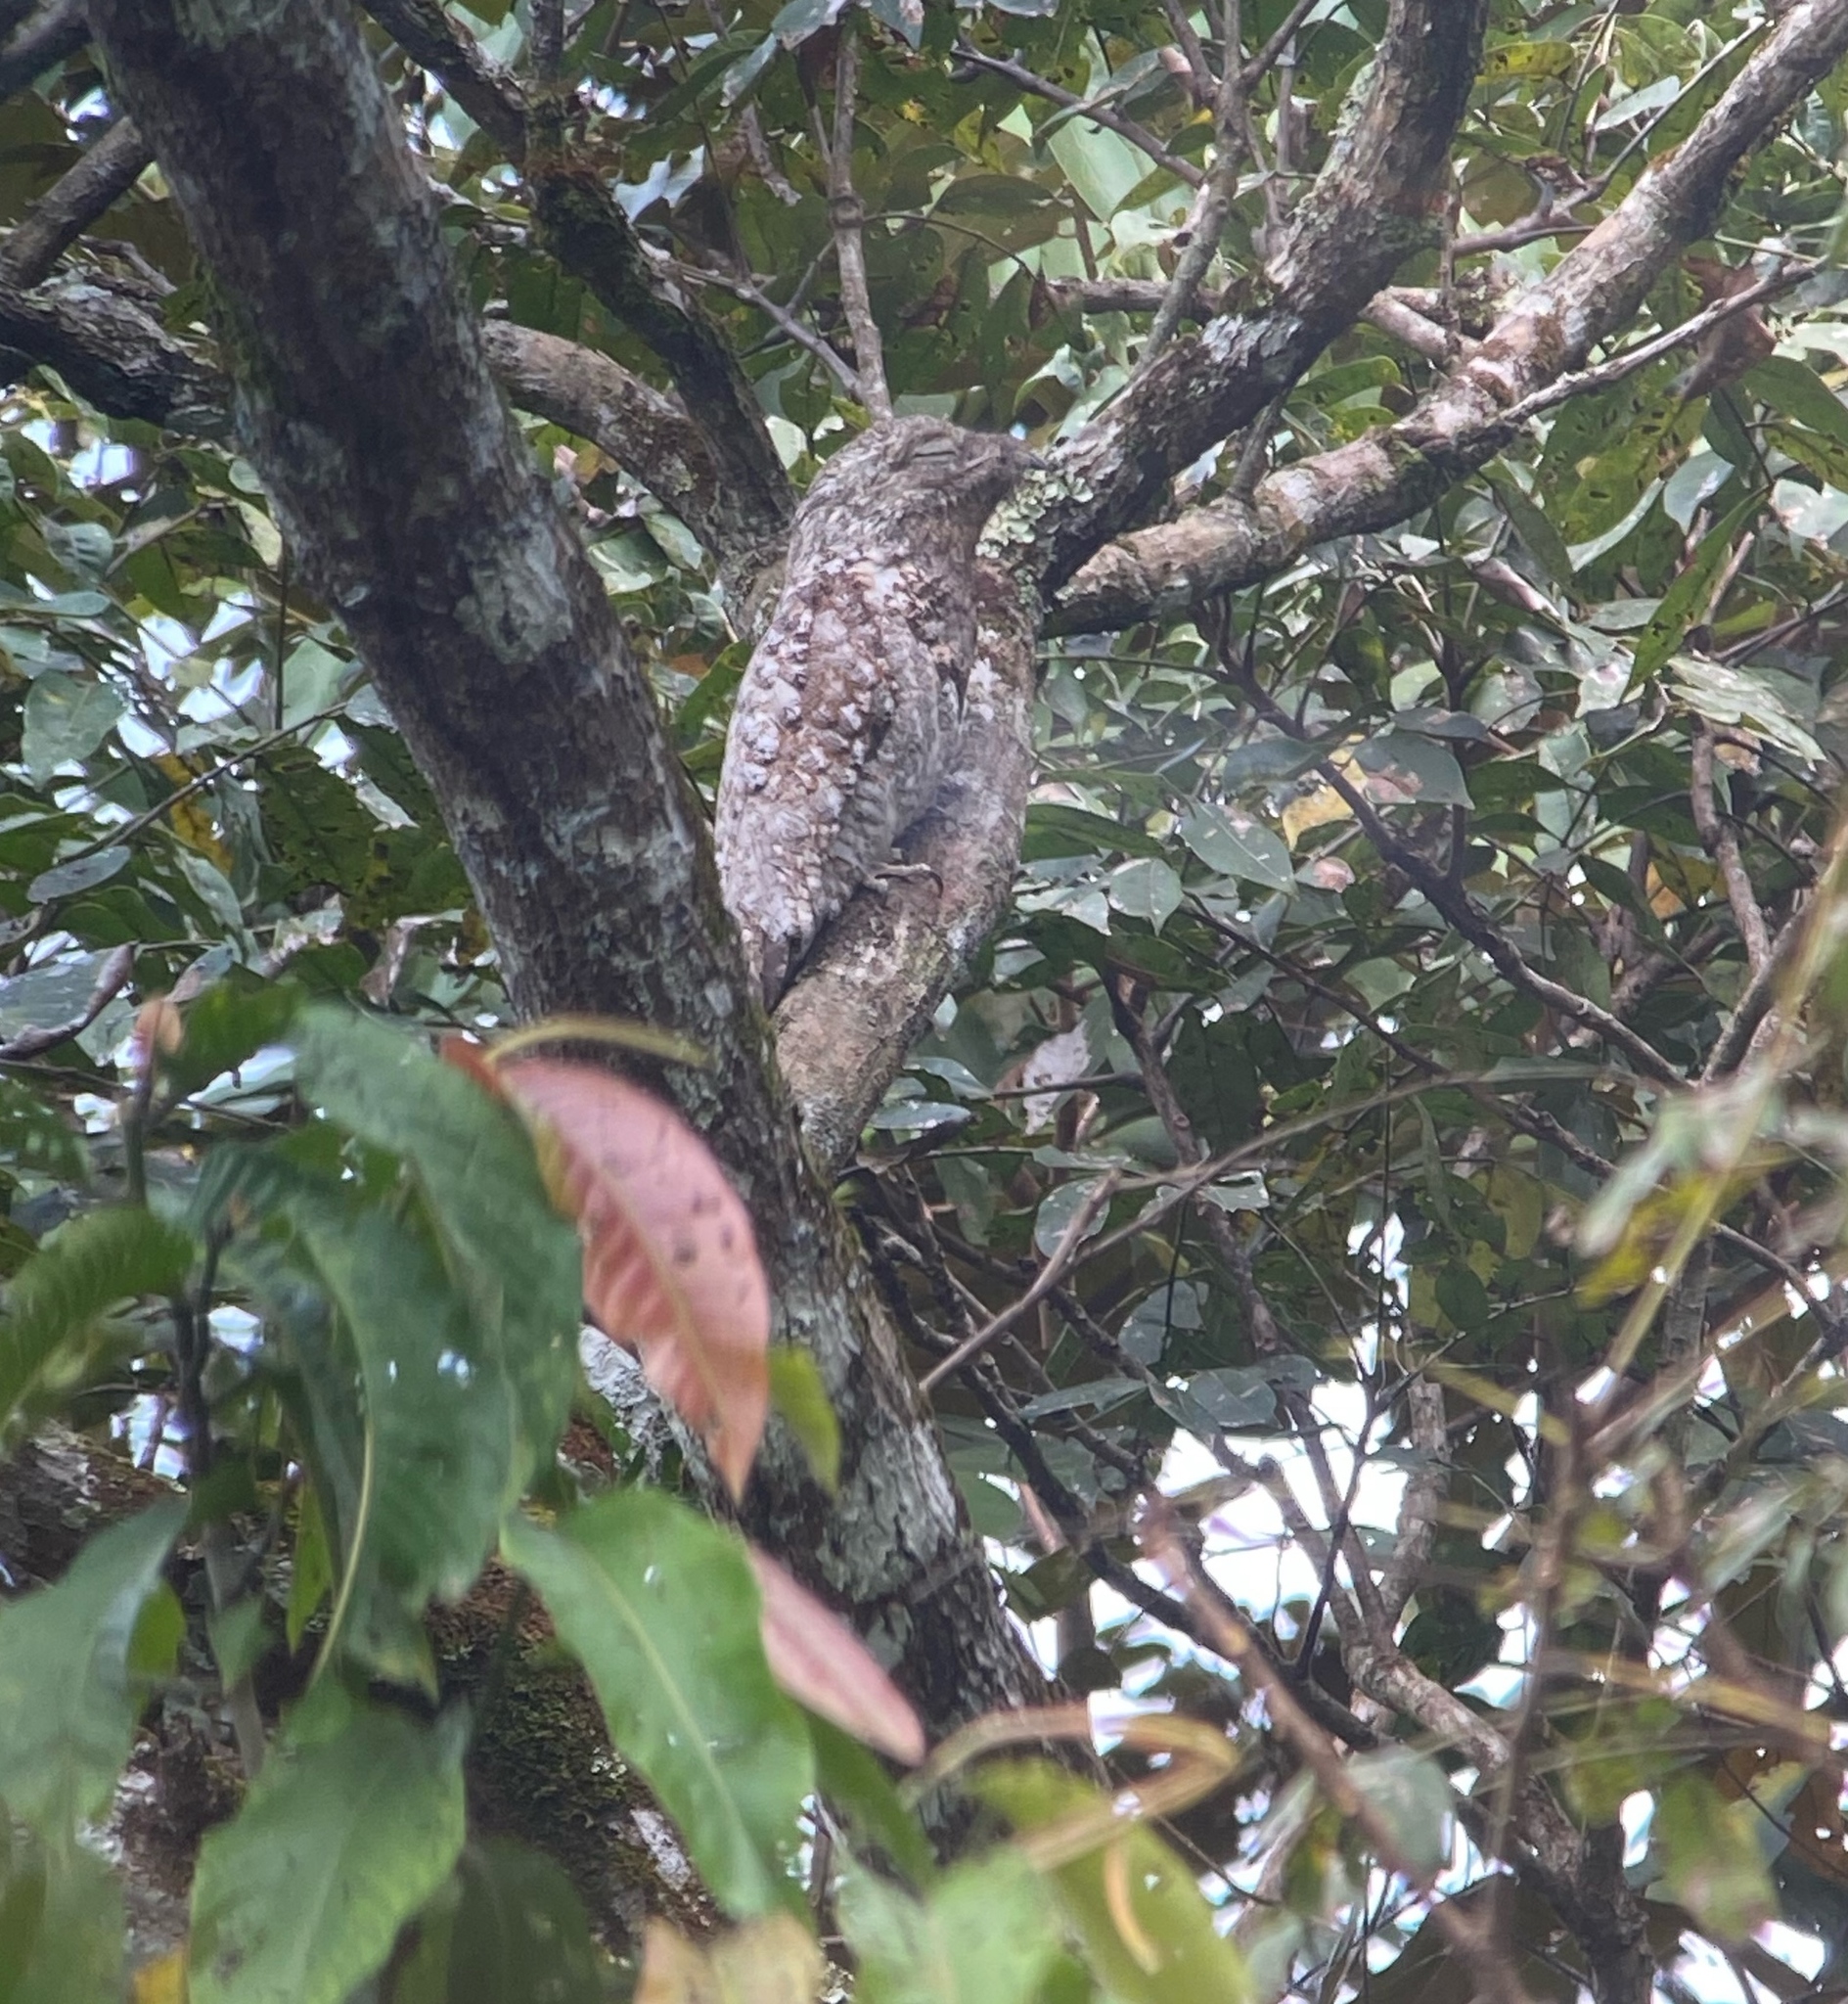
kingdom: Animalia
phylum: Chordata
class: Aves
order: Nyctibiiformes
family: Nyctibiidae
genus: Nyctibius
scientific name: Nyctibius grandis
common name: Great potoo
